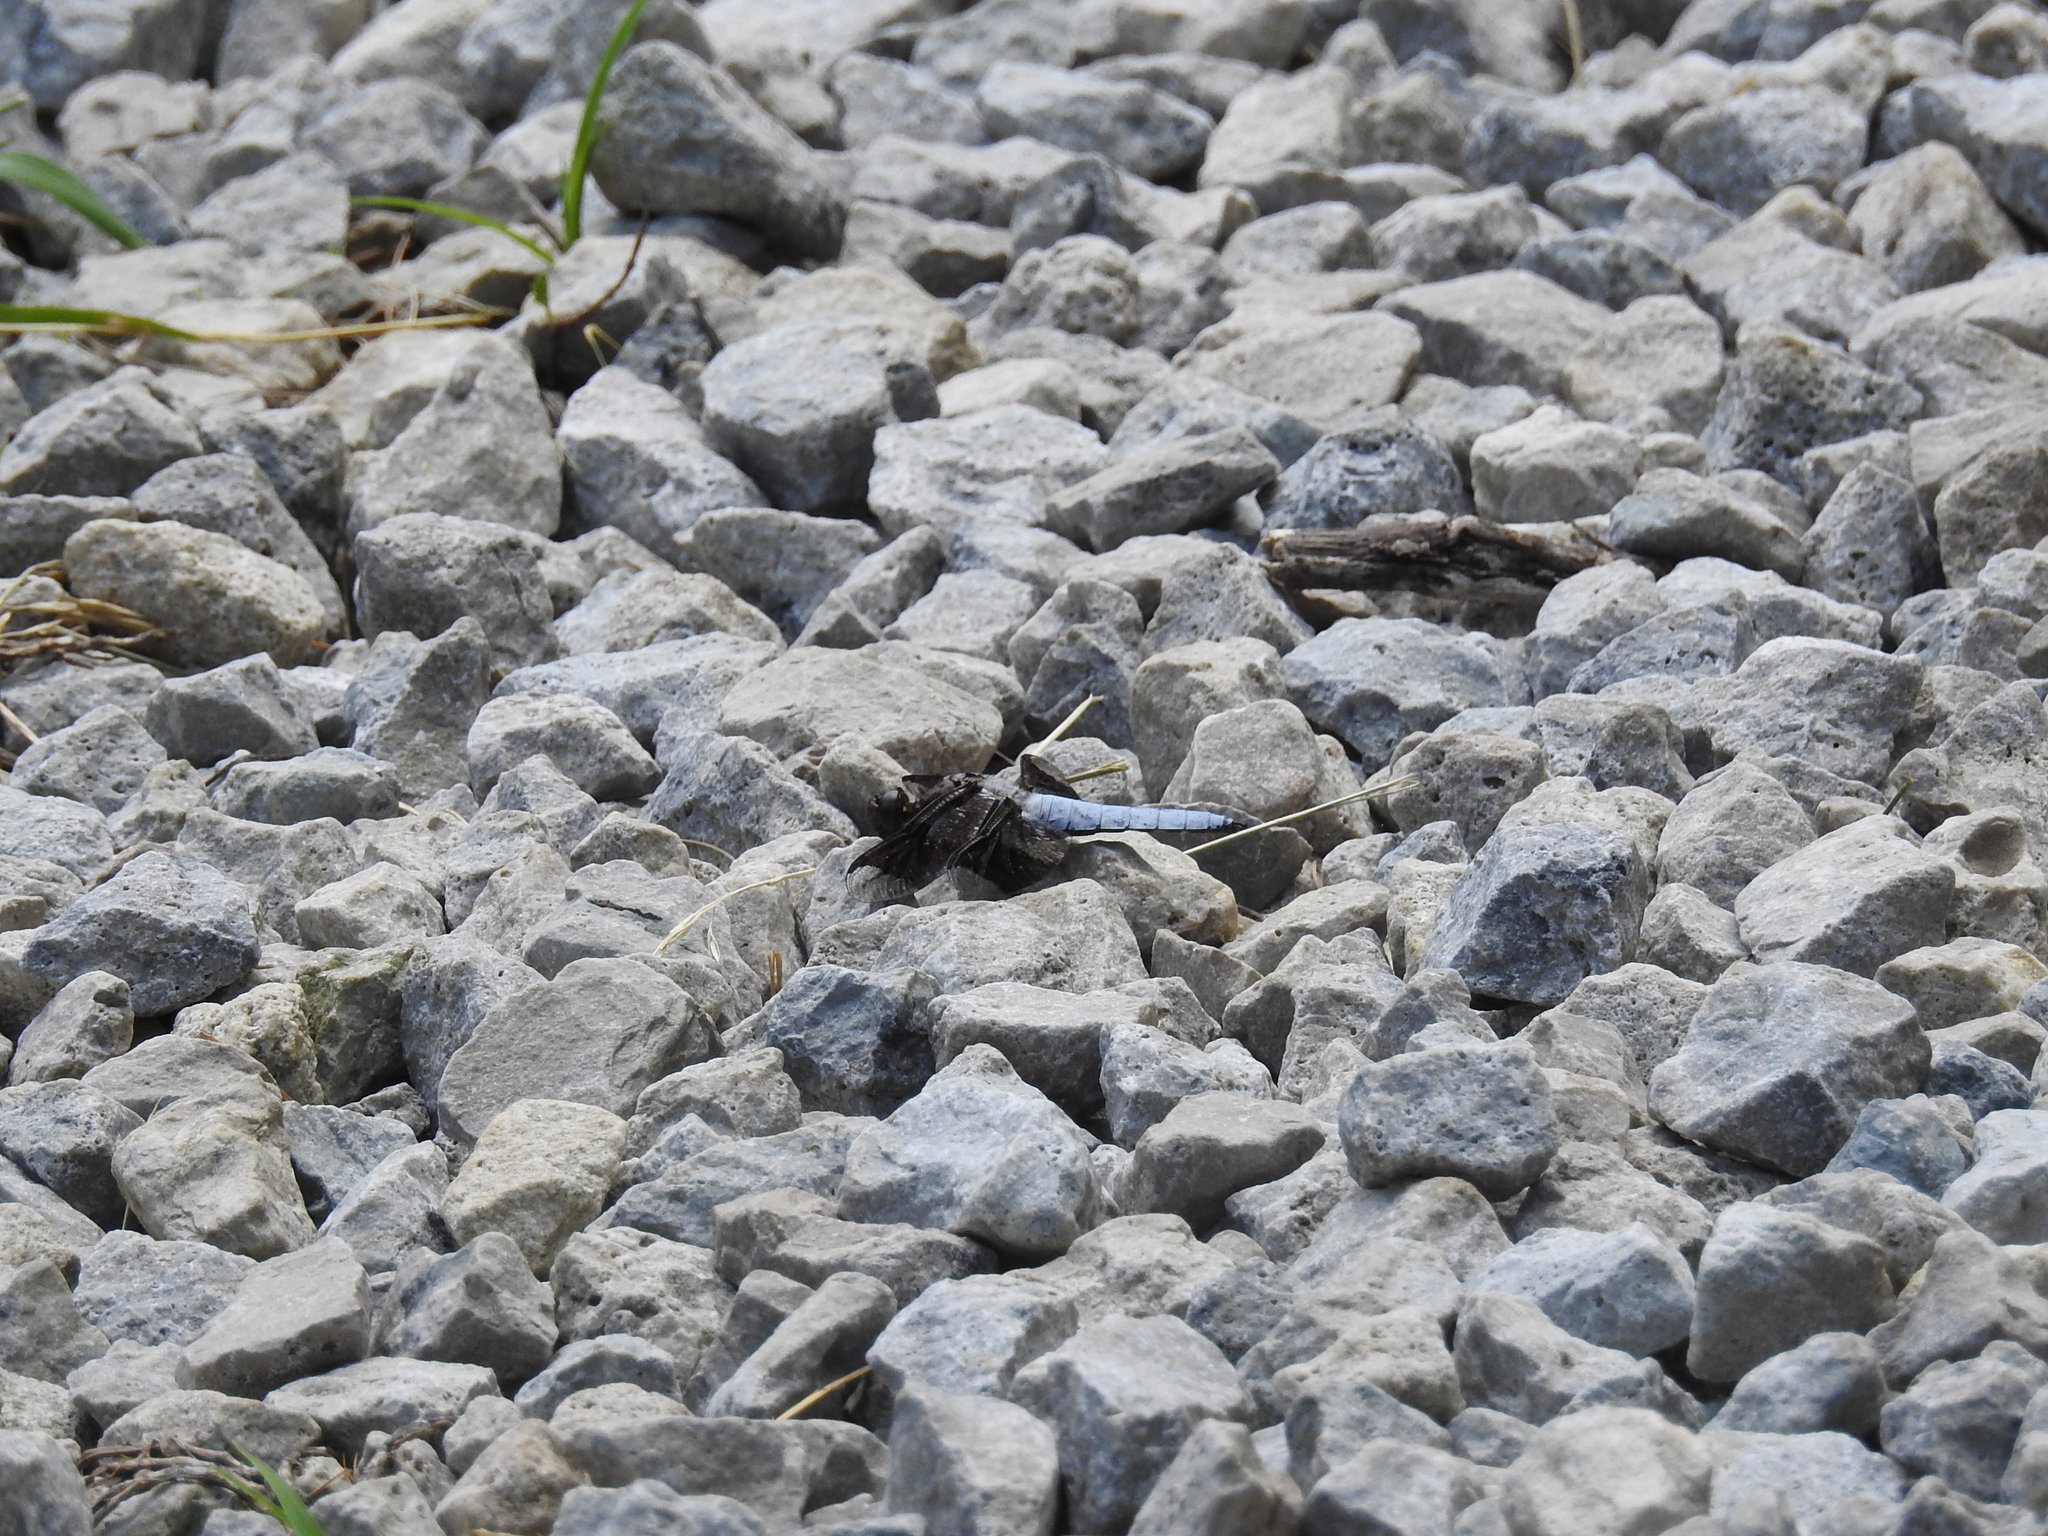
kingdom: Animalia
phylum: Arthropoda
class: Insecta
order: Odonata
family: Libellulidae
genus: Plathemis
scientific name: Plathemis lydia
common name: Common whitetail
